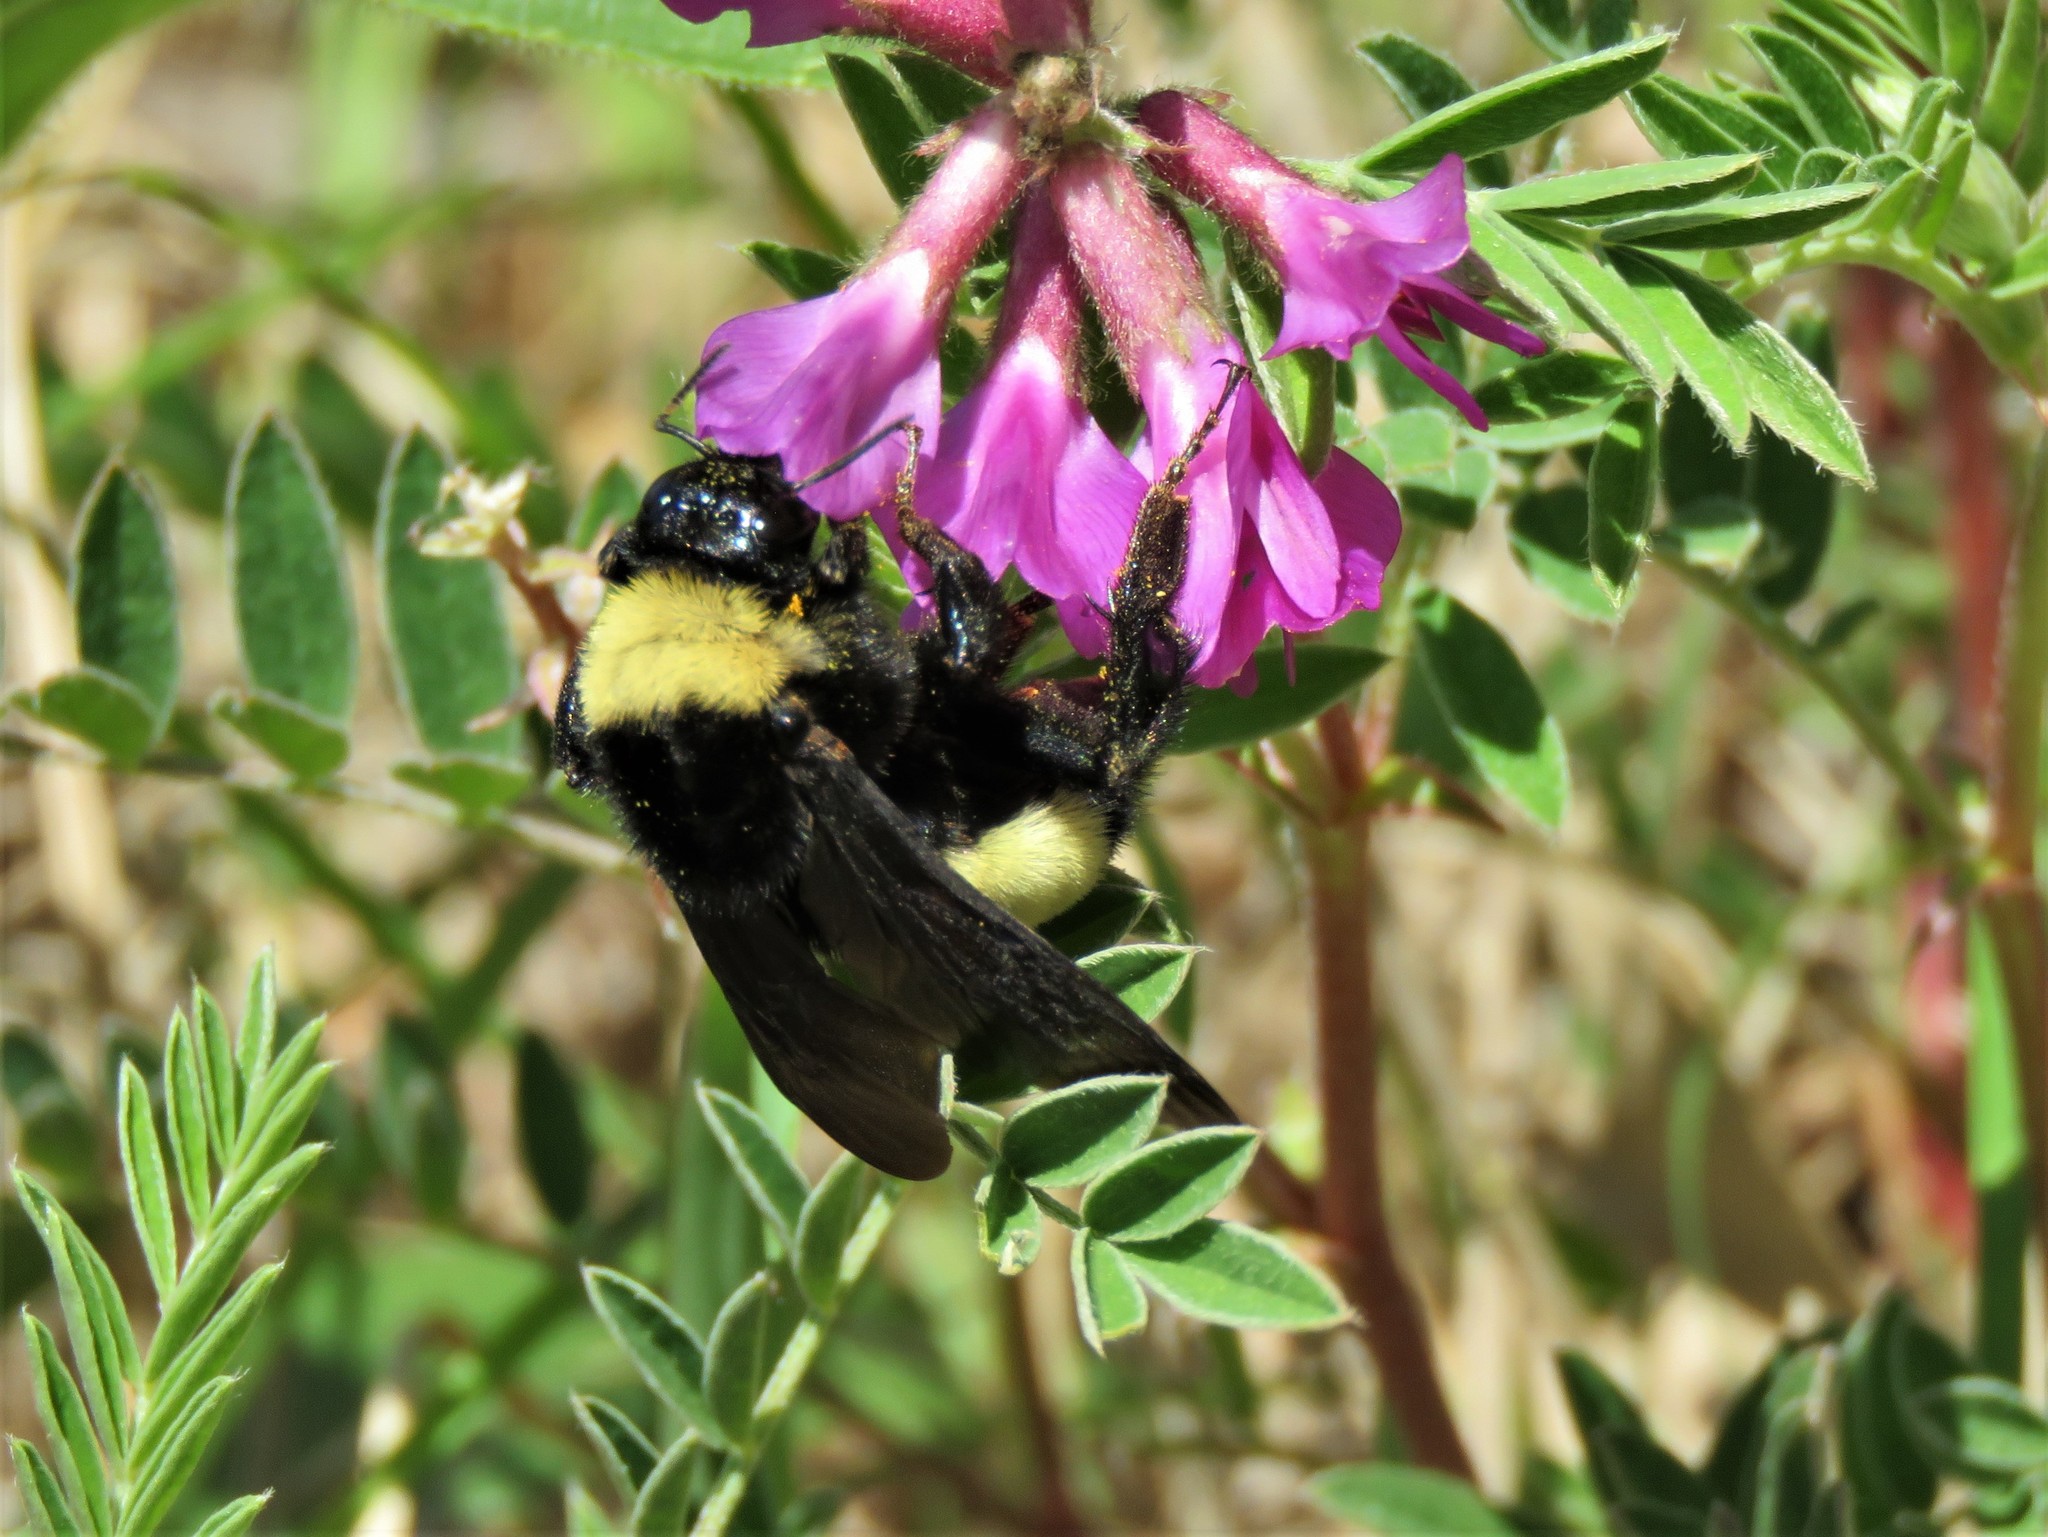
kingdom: Animalia
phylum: Arthropoda
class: Insecta
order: Hymenoptera
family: Apidae
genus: Bombus
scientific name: Bombus pensylvanicus
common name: Bumble bee
